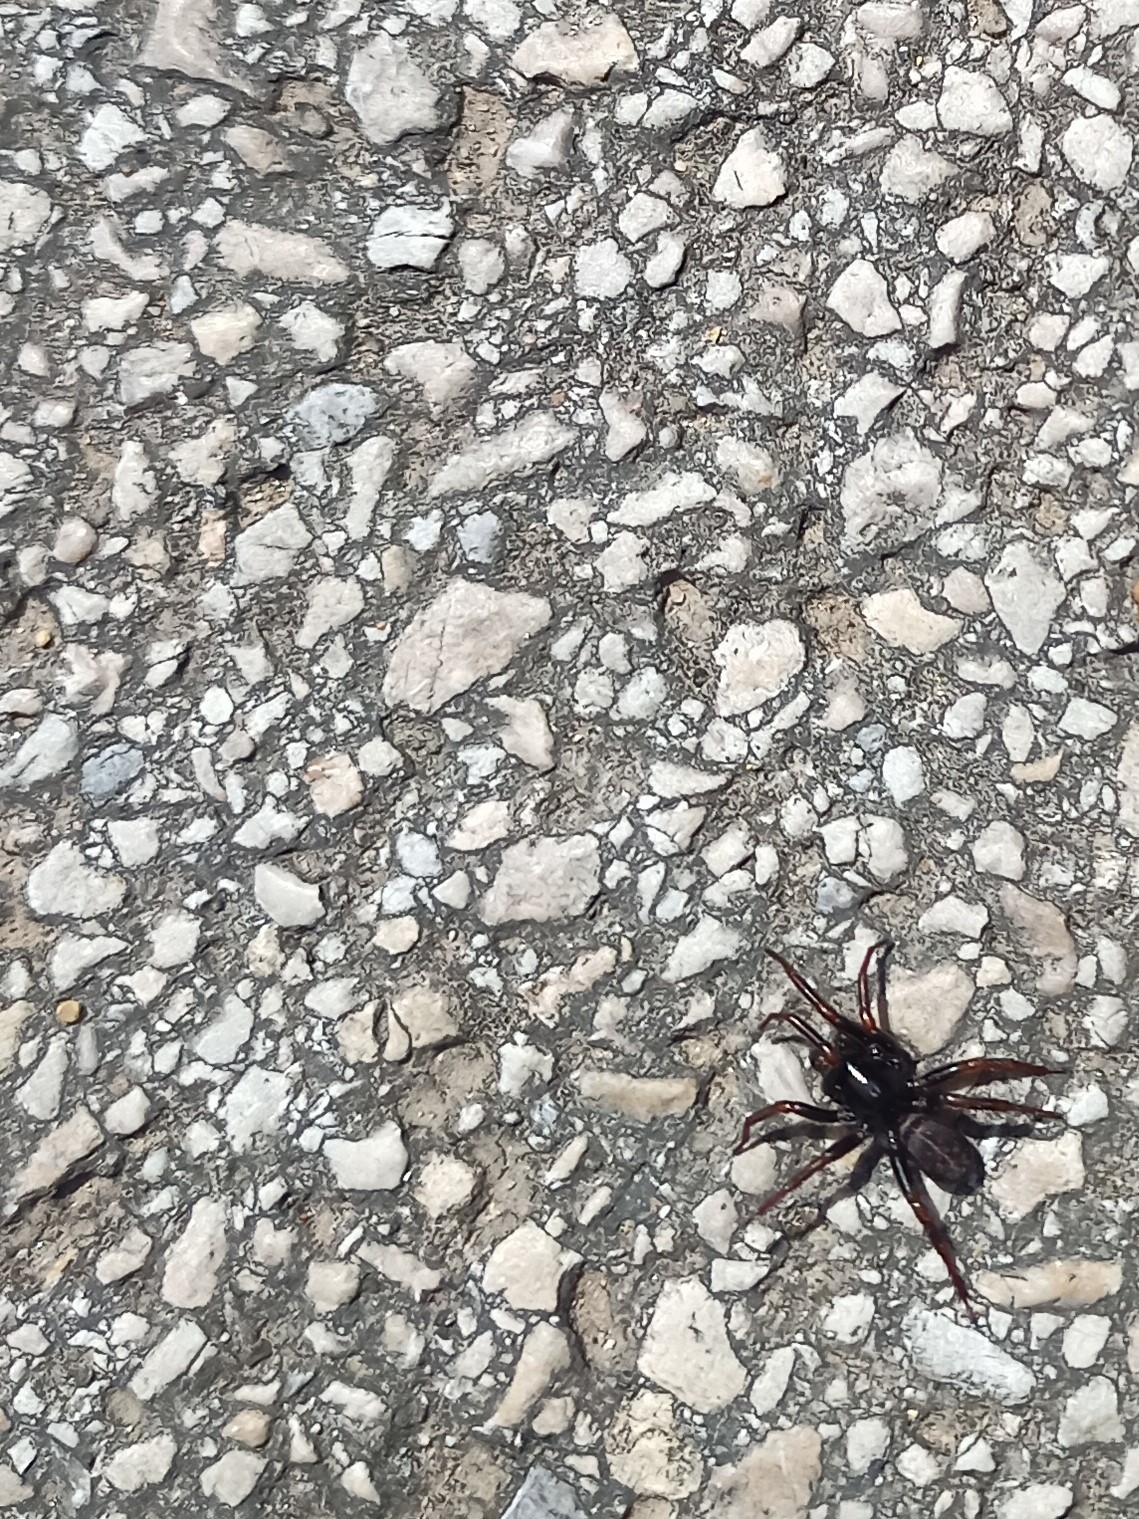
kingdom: Animalia
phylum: Arthropoda
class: Arachnida
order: Araneae
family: Zodariidae
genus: Selamia
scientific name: Selamia reticulata
